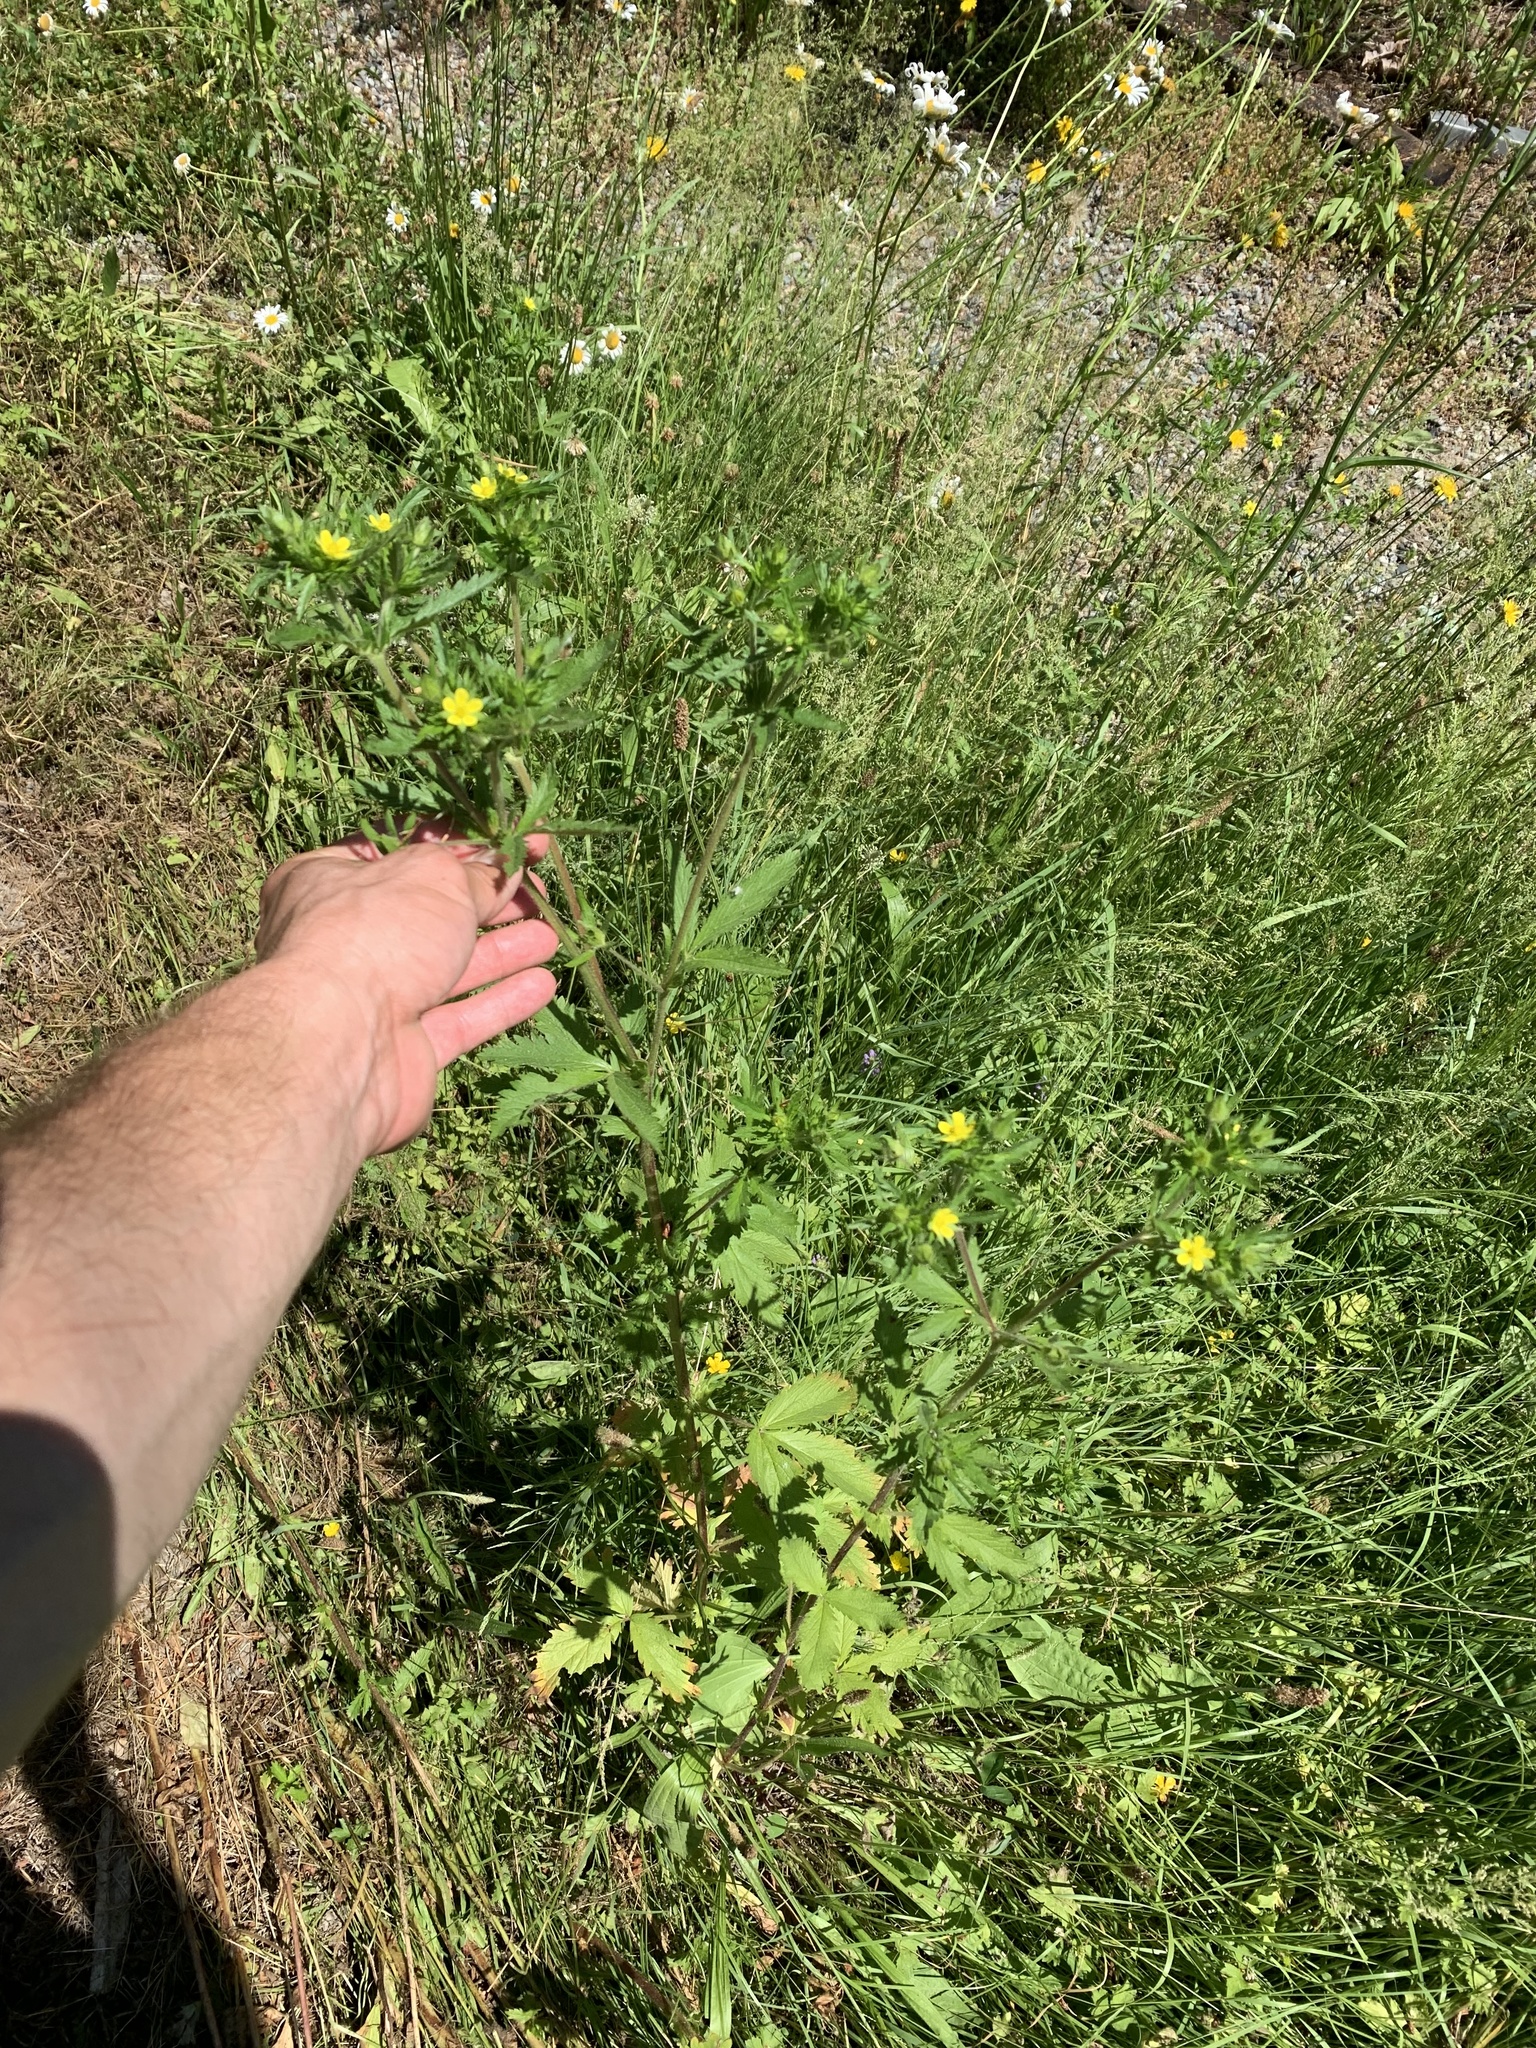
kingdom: Plantae
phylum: Tracheophyta
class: Magnoliopsida
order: Rosales
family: Rosaceae
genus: Potentilla
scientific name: Potentilla norvegica
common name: Ternate-leaved cinquefoil
